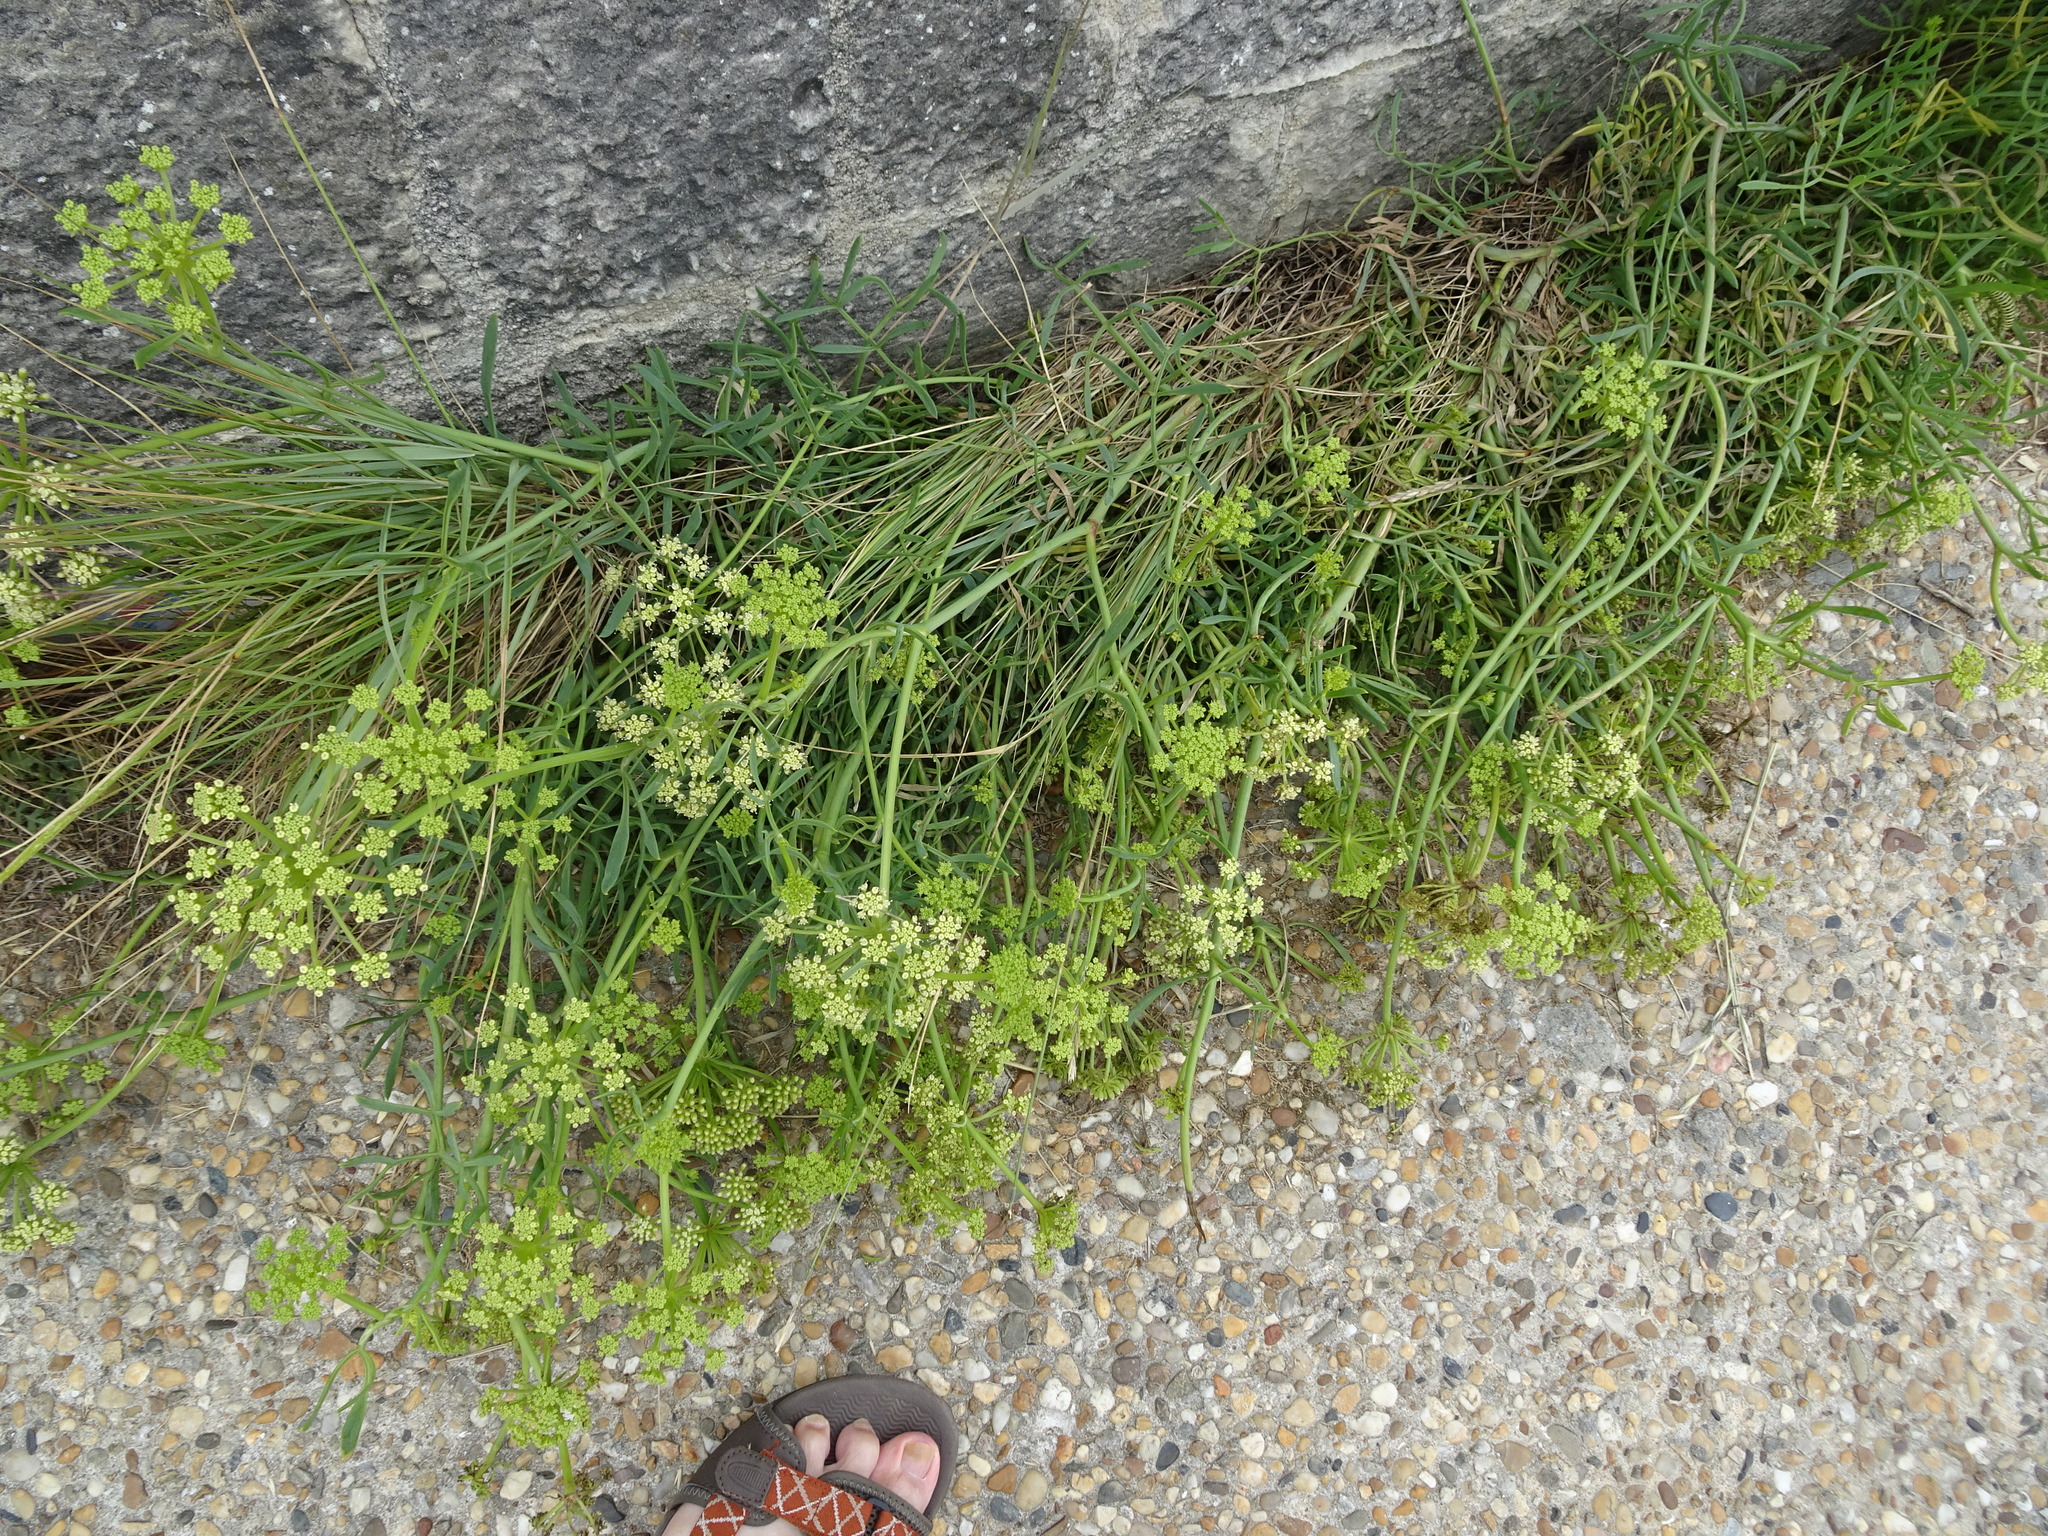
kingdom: Plantae
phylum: Tracheophyta
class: Magnoliopsida
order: Apiales
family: Apiaceae
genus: Crithmum
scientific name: Crithmum maritimum
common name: Rock samphire
